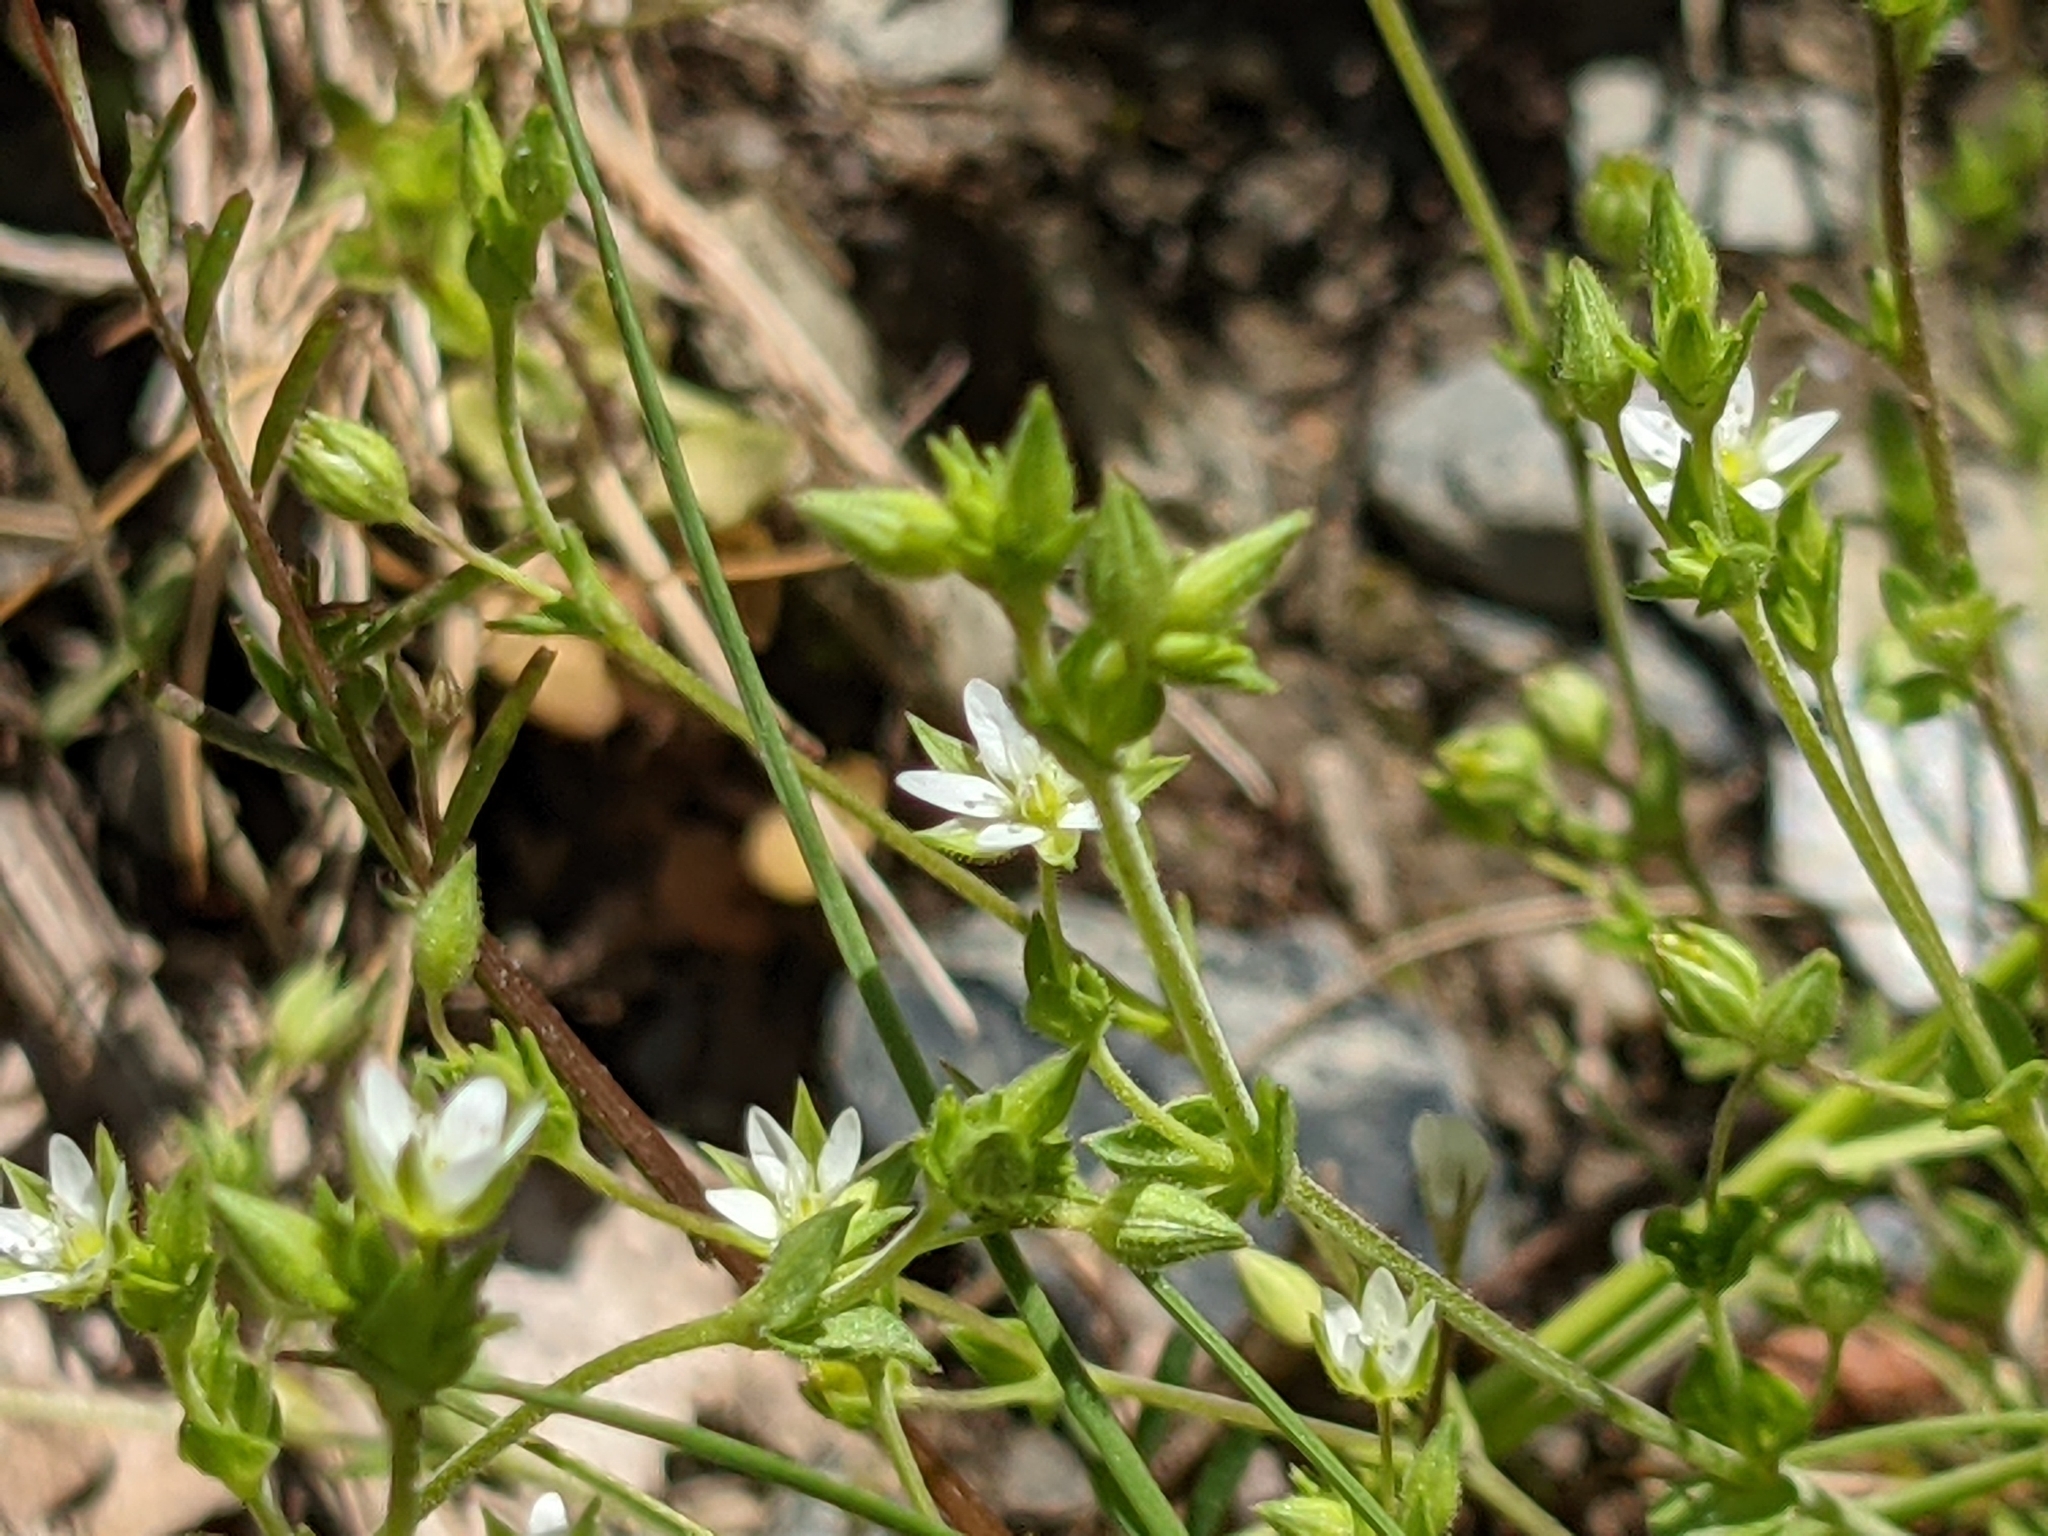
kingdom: Plantae
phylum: Tracheophyta
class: Magnoliopsida
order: Caryophyllales
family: Caryophyllaceae
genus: Arenaria
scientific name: Arenaria serpyllifolia
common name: Thyme-leaved sandwort
